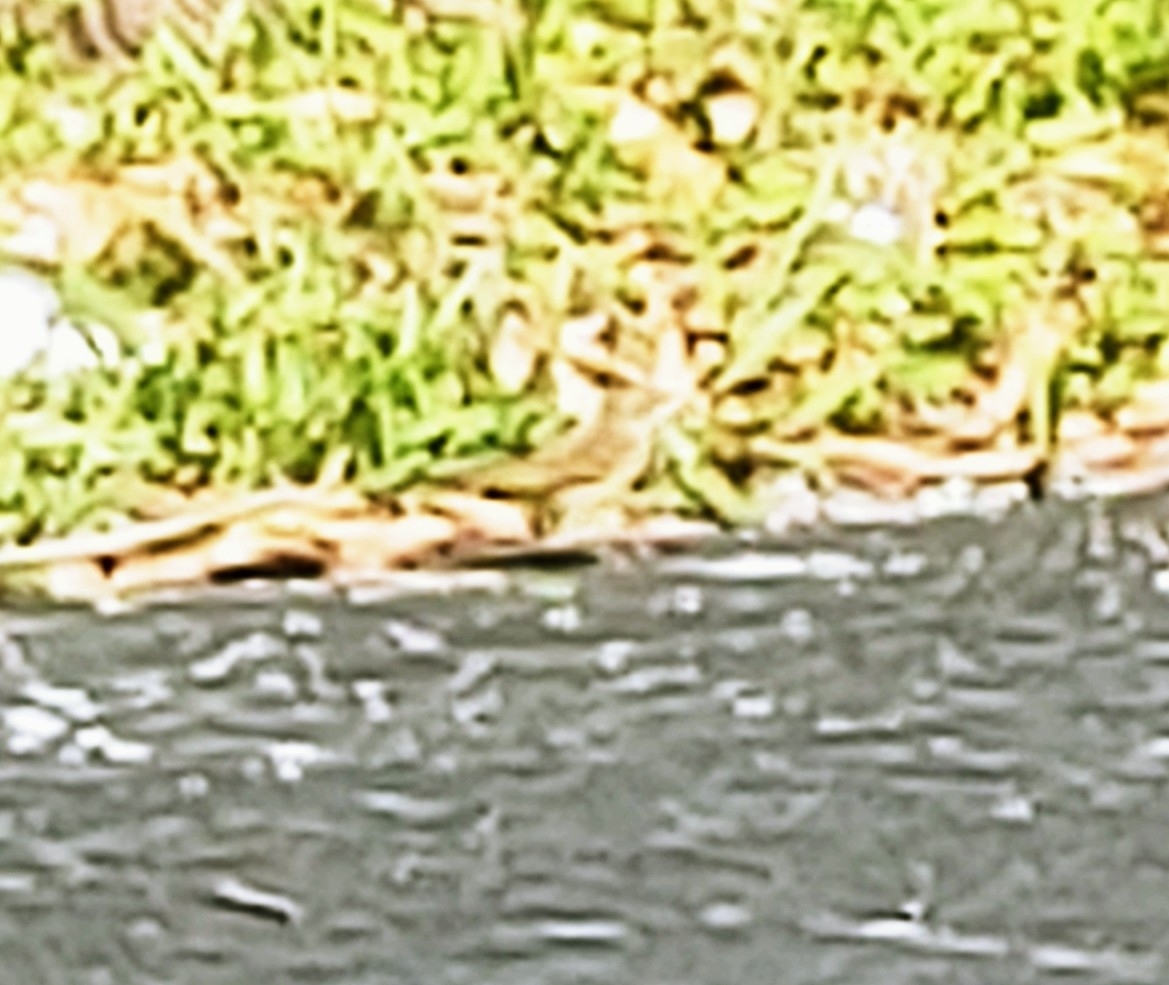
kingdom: Animalia
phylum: Chordata
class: Aves
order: Passeriformes
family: Parulidae
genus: Setophaga
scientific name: Setophaga palmarum
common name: Palm warbler
